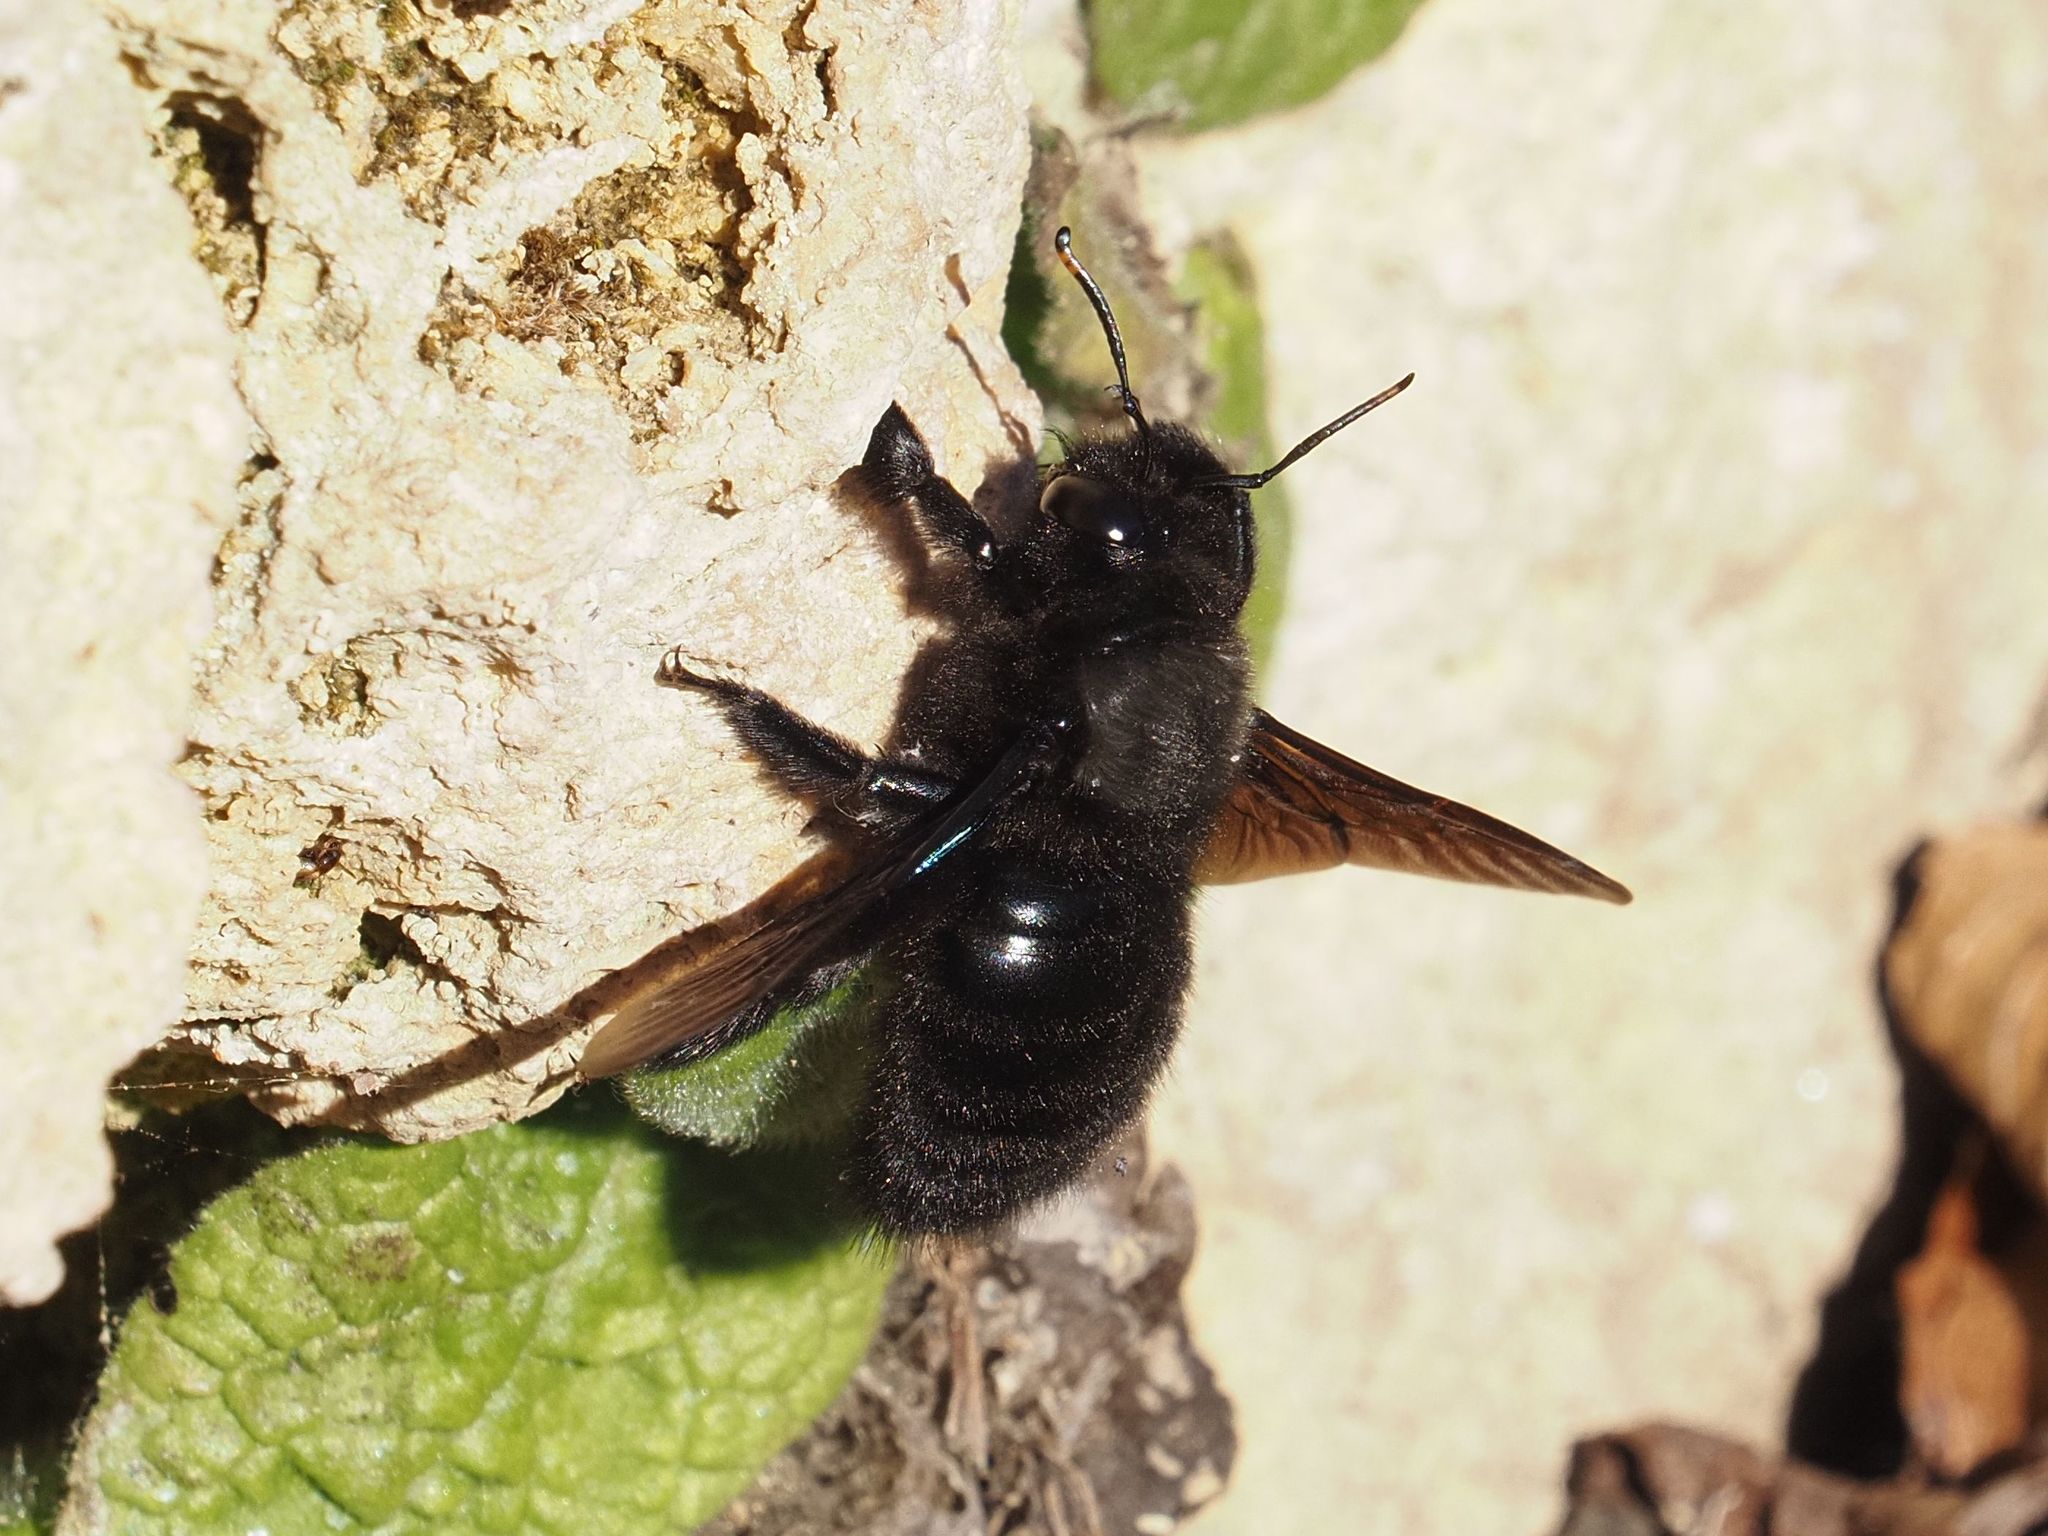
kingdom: Animalia
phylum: Arthropoda
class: Insecta
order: Hymenoptera
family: Apidae
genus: Xylocopa
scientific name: Xylocopa violacea
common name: Violet carpenter bee
